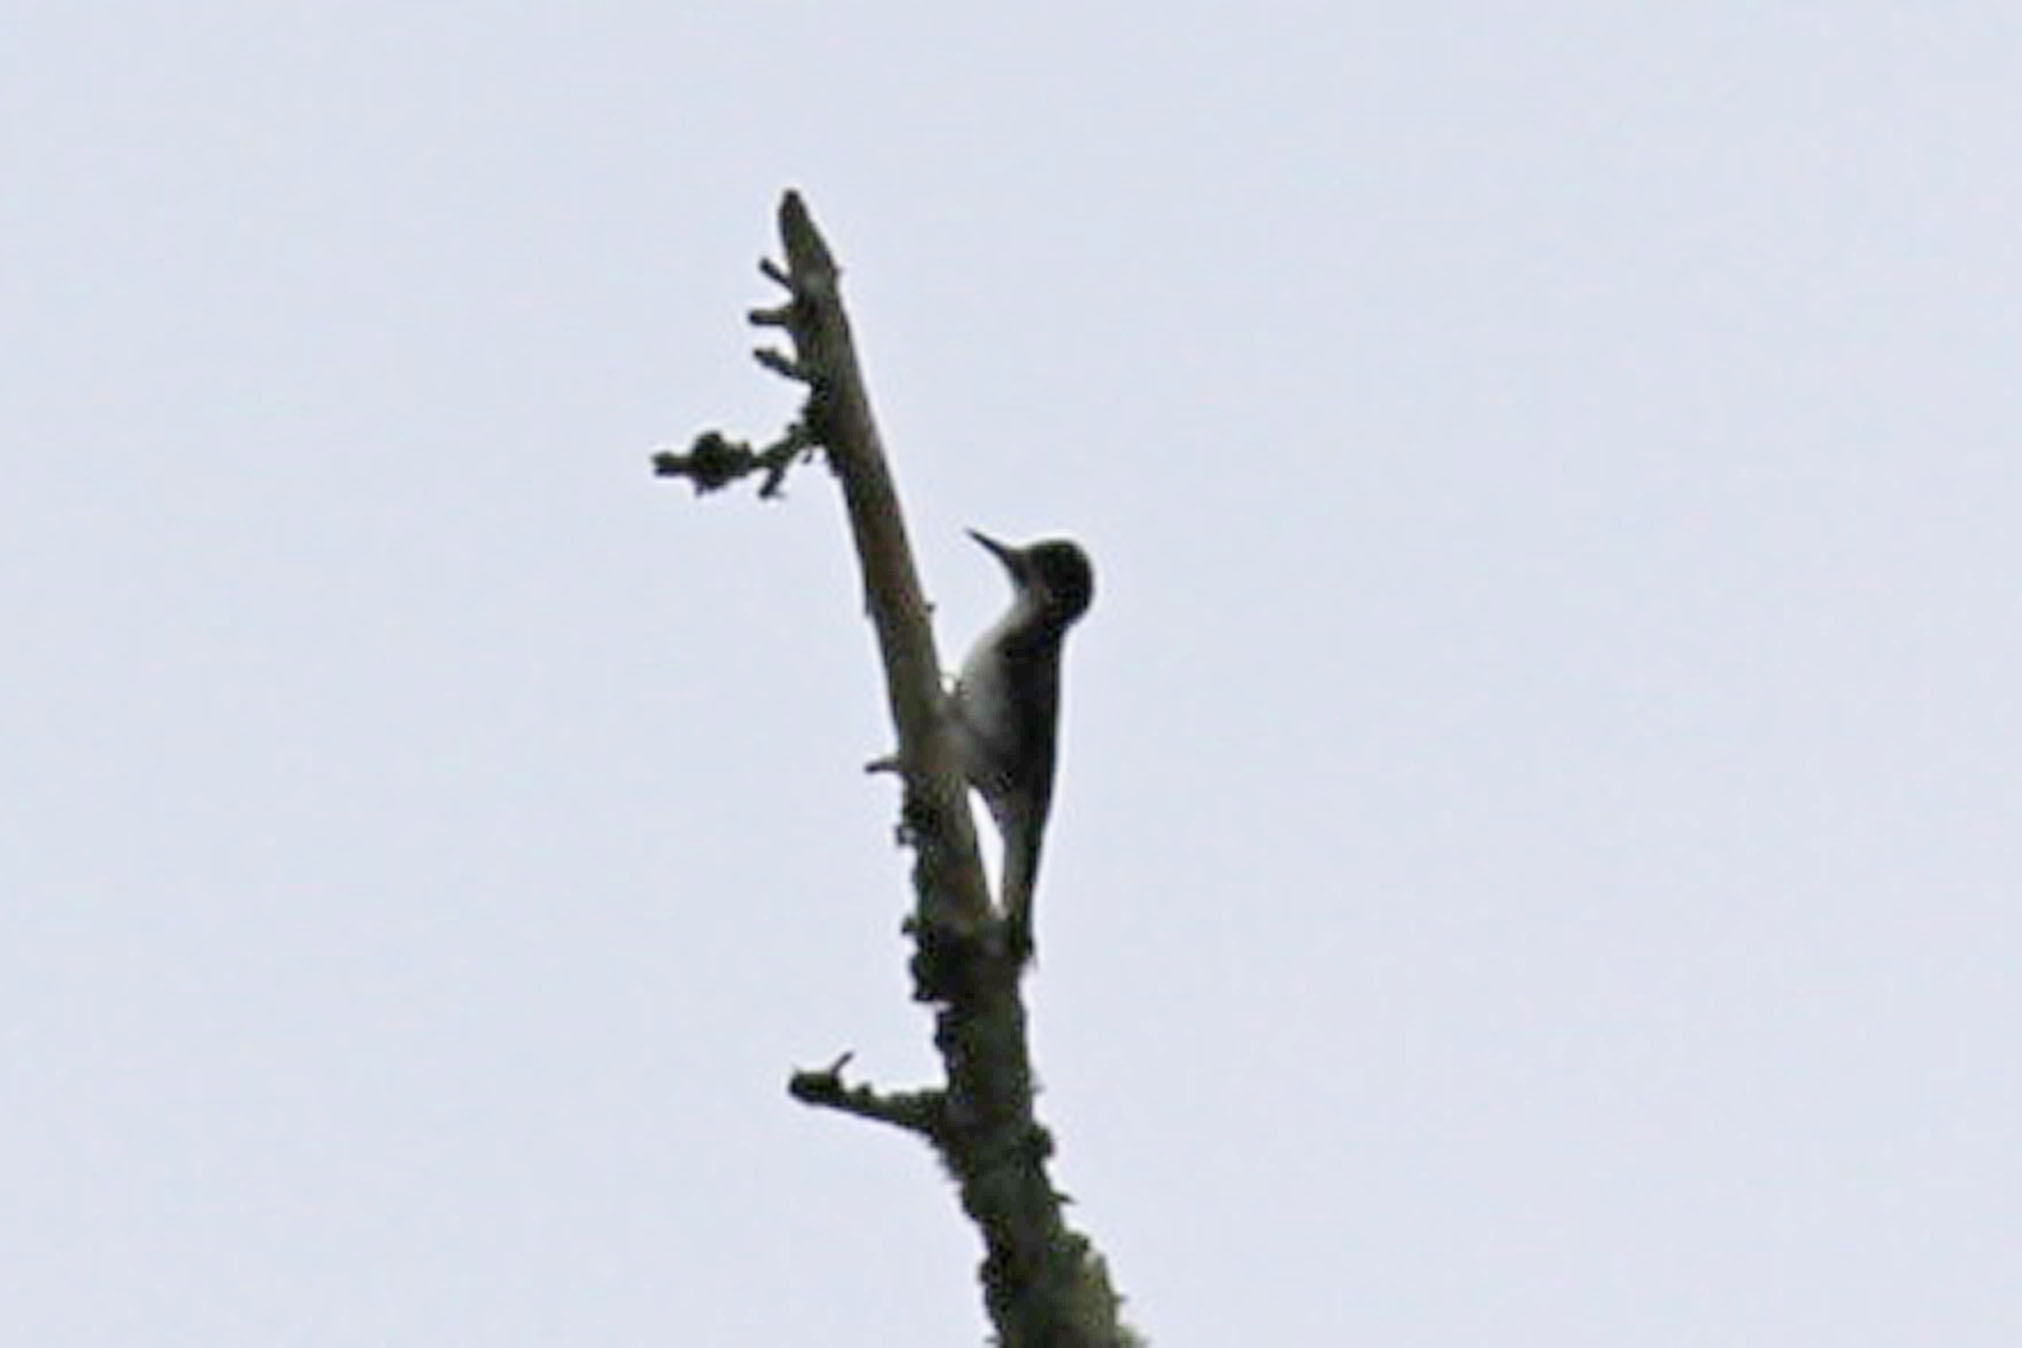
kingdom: Animalia
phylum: Chordata
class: Aves
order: Piciformes
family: Picidae
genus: Picoides
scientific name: Picoides arcticus
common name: Black-backed woodpecker
